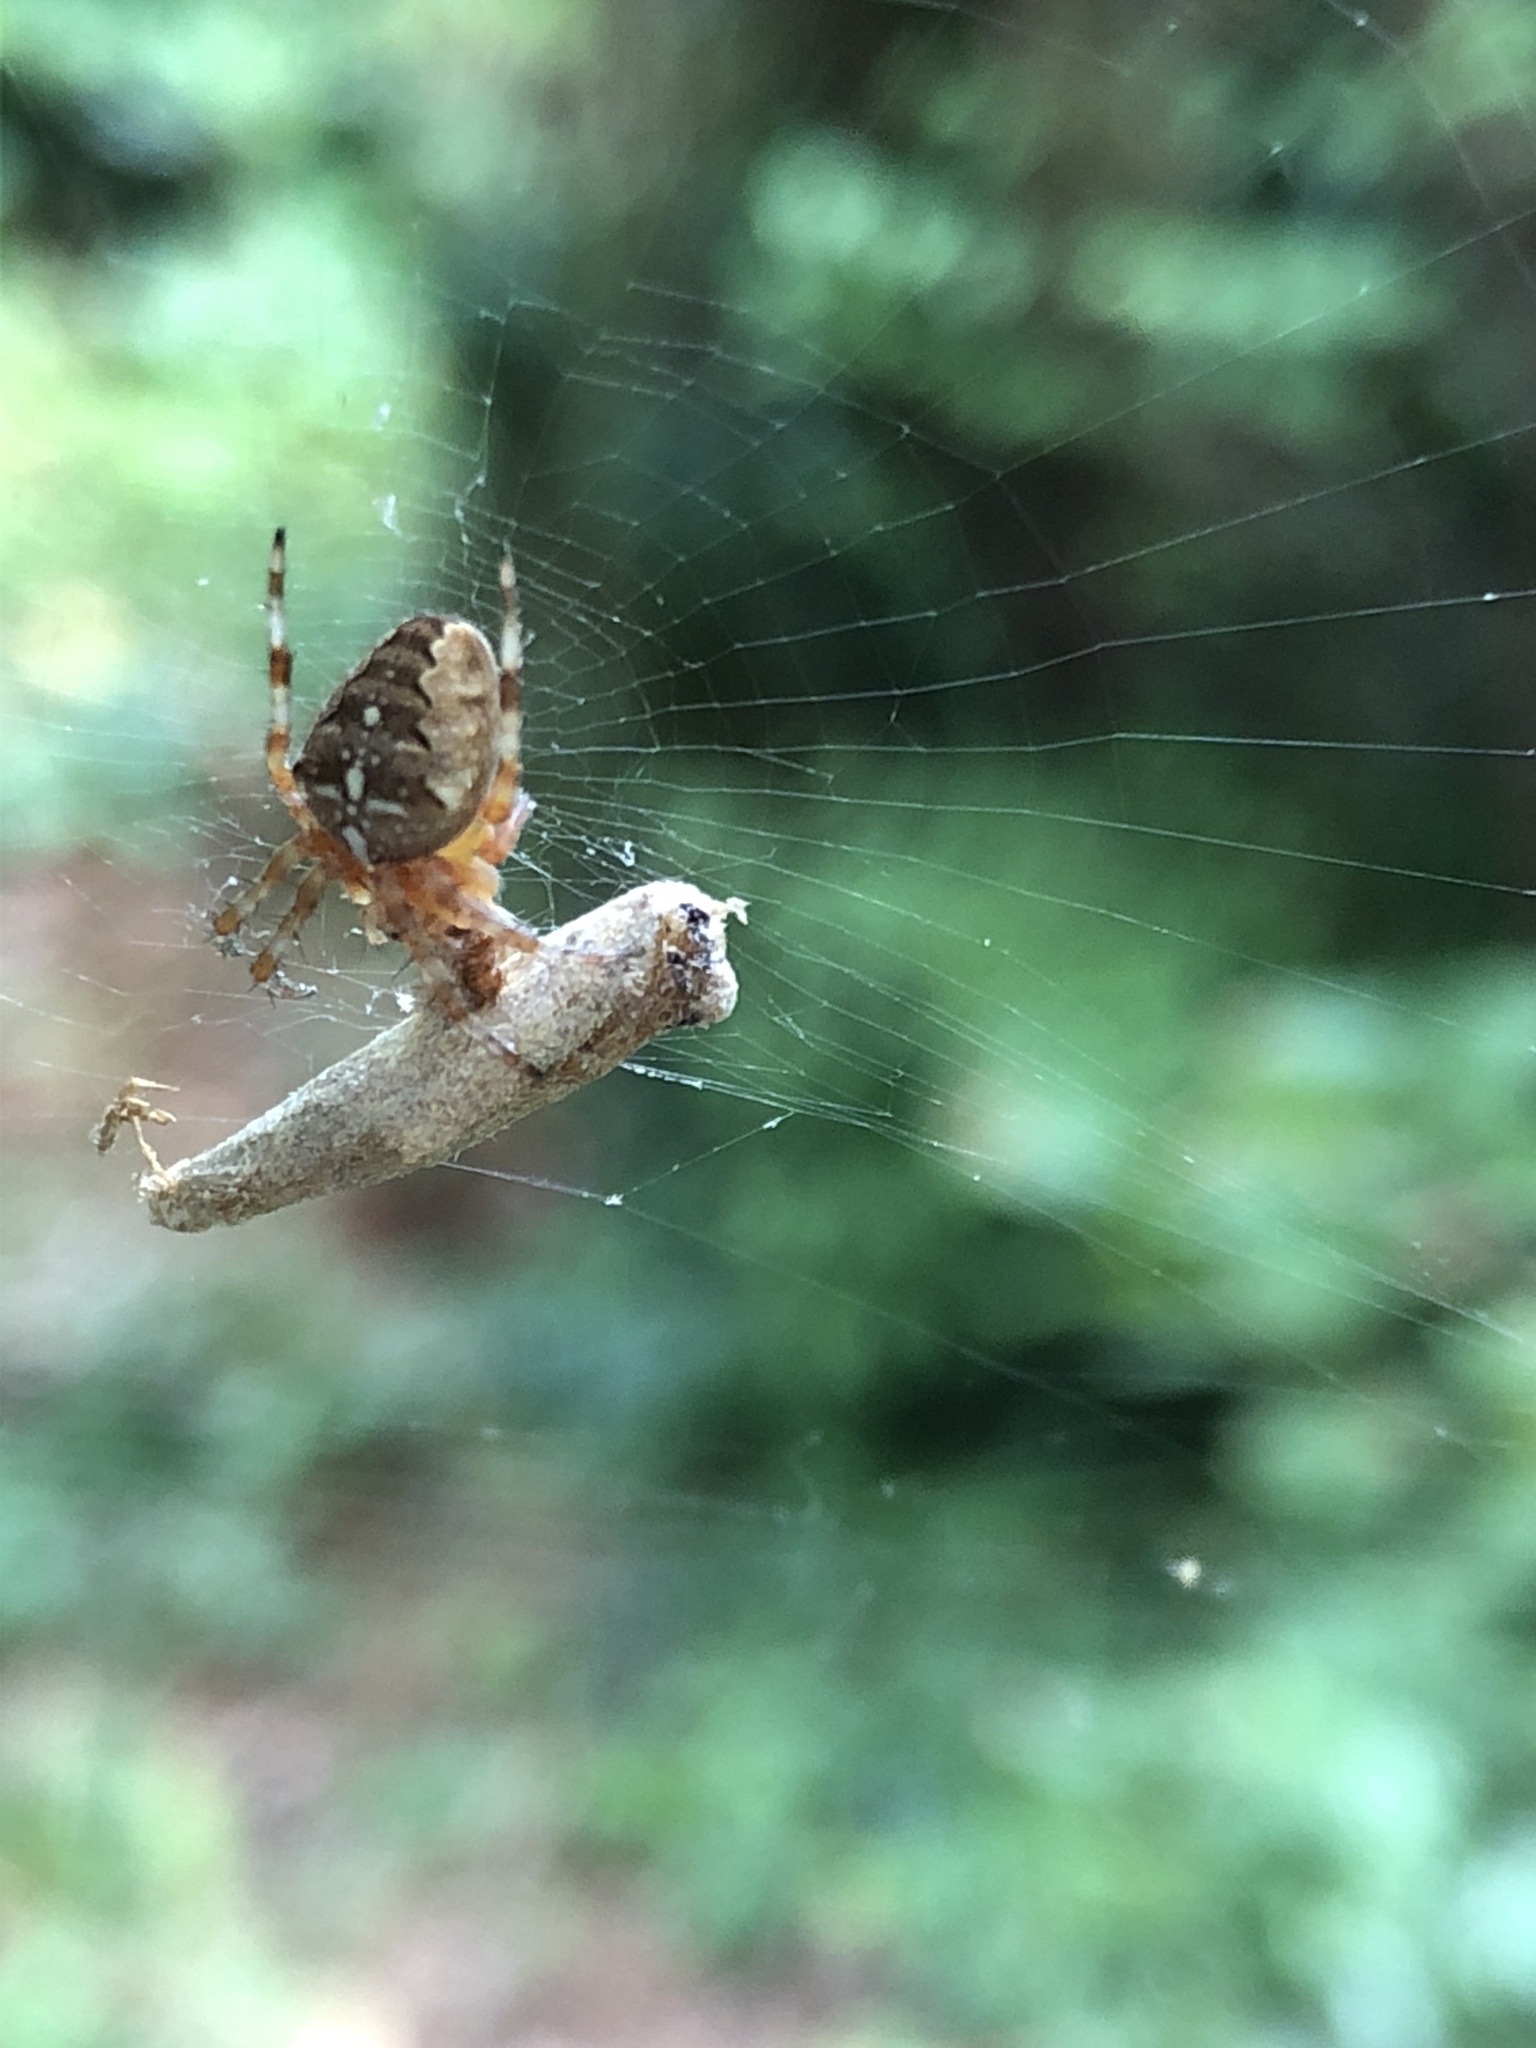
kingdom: Animalia
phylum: Arthropoda
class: Arachnida
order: Araneae
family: Araneidae
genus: Araneus
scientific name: Araneus diadematus
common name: Cross orbweaver
